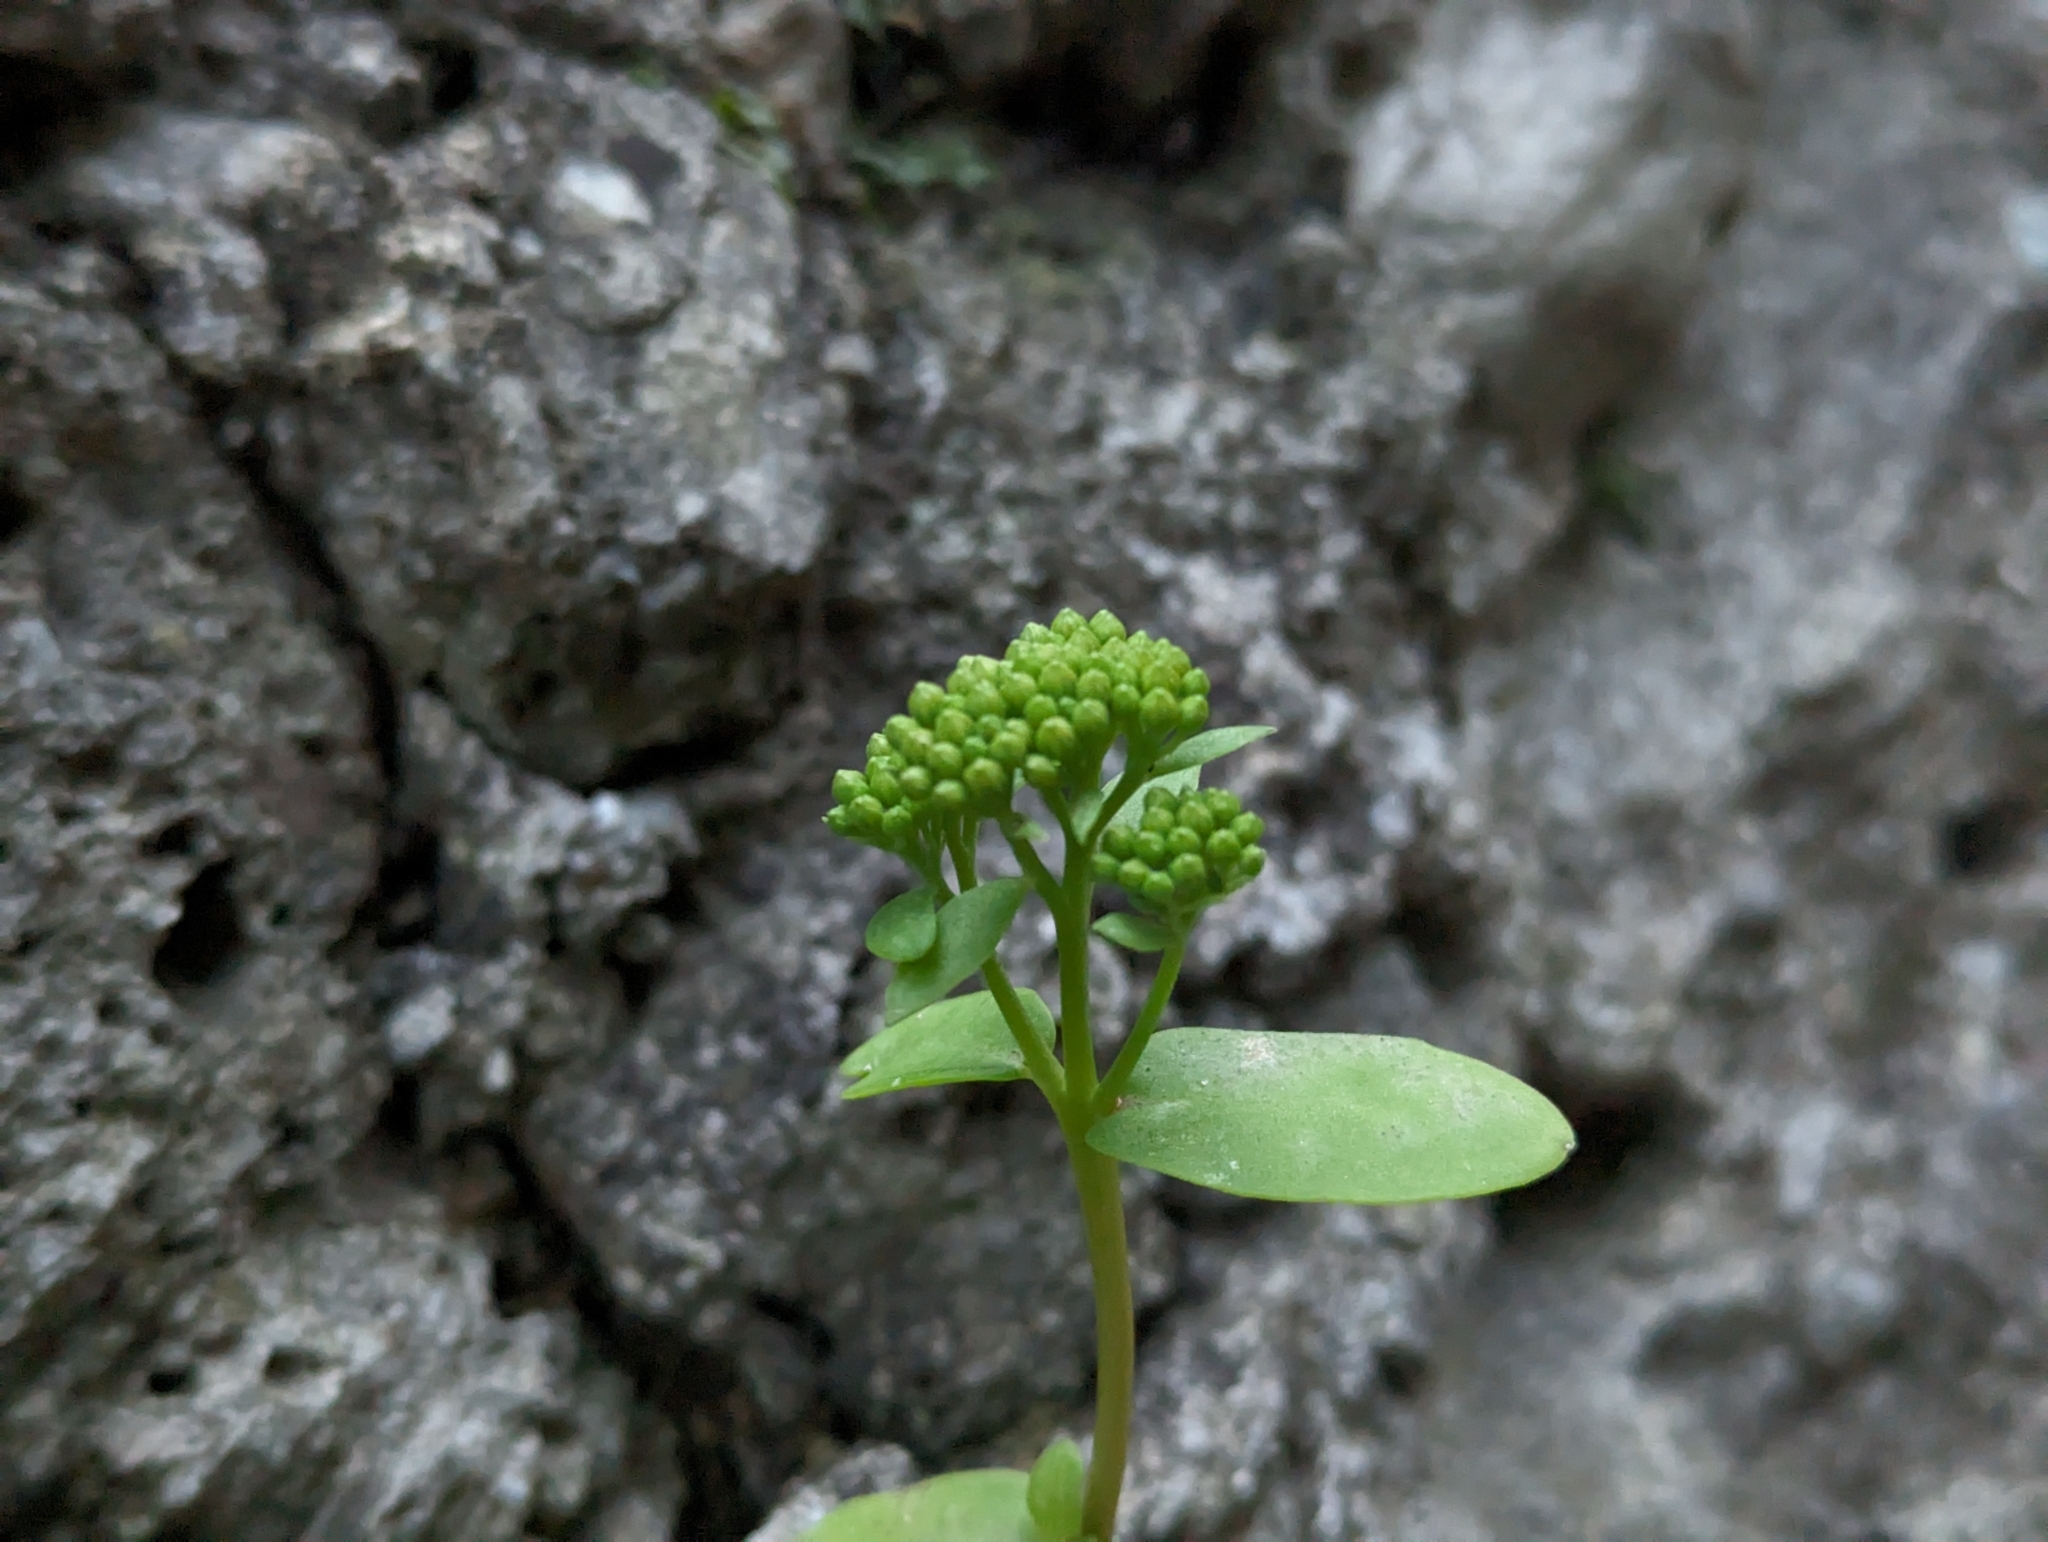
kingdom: Plantae
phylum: Tracheophyta
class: Magnoliopsida
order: Saxifragales
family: Crassulaceae
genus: Hylotelephium
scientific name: Hylotelephium maximum
